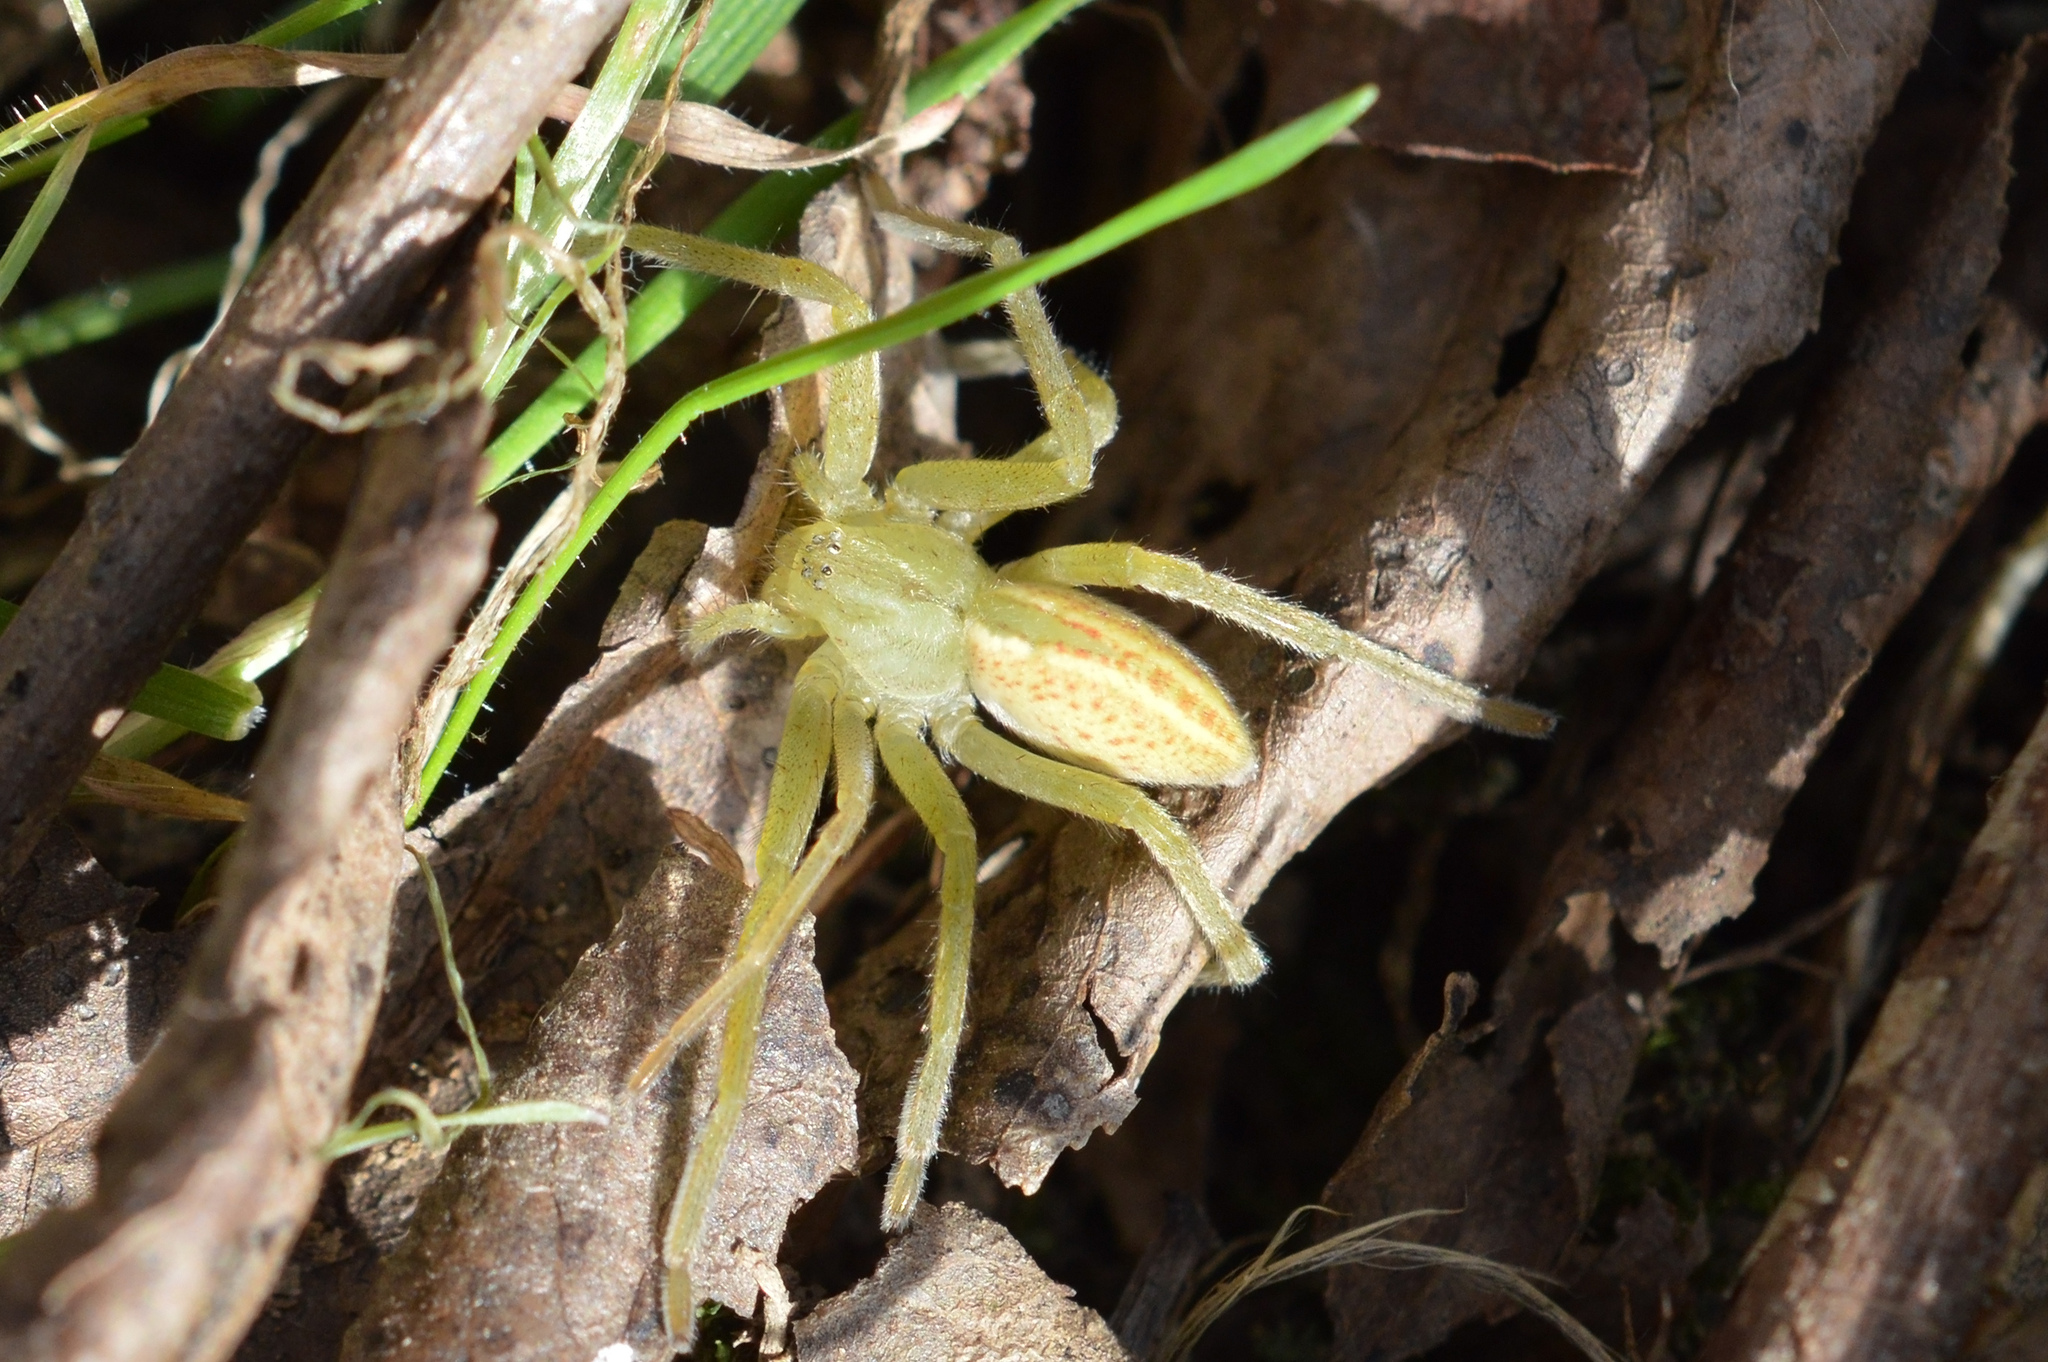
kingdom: Animalia
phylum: Arthropoda
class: Arachnida
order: Araneae
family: Sparassidae
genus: Micrommata
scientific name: Micrommata virescens
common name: Green spider
